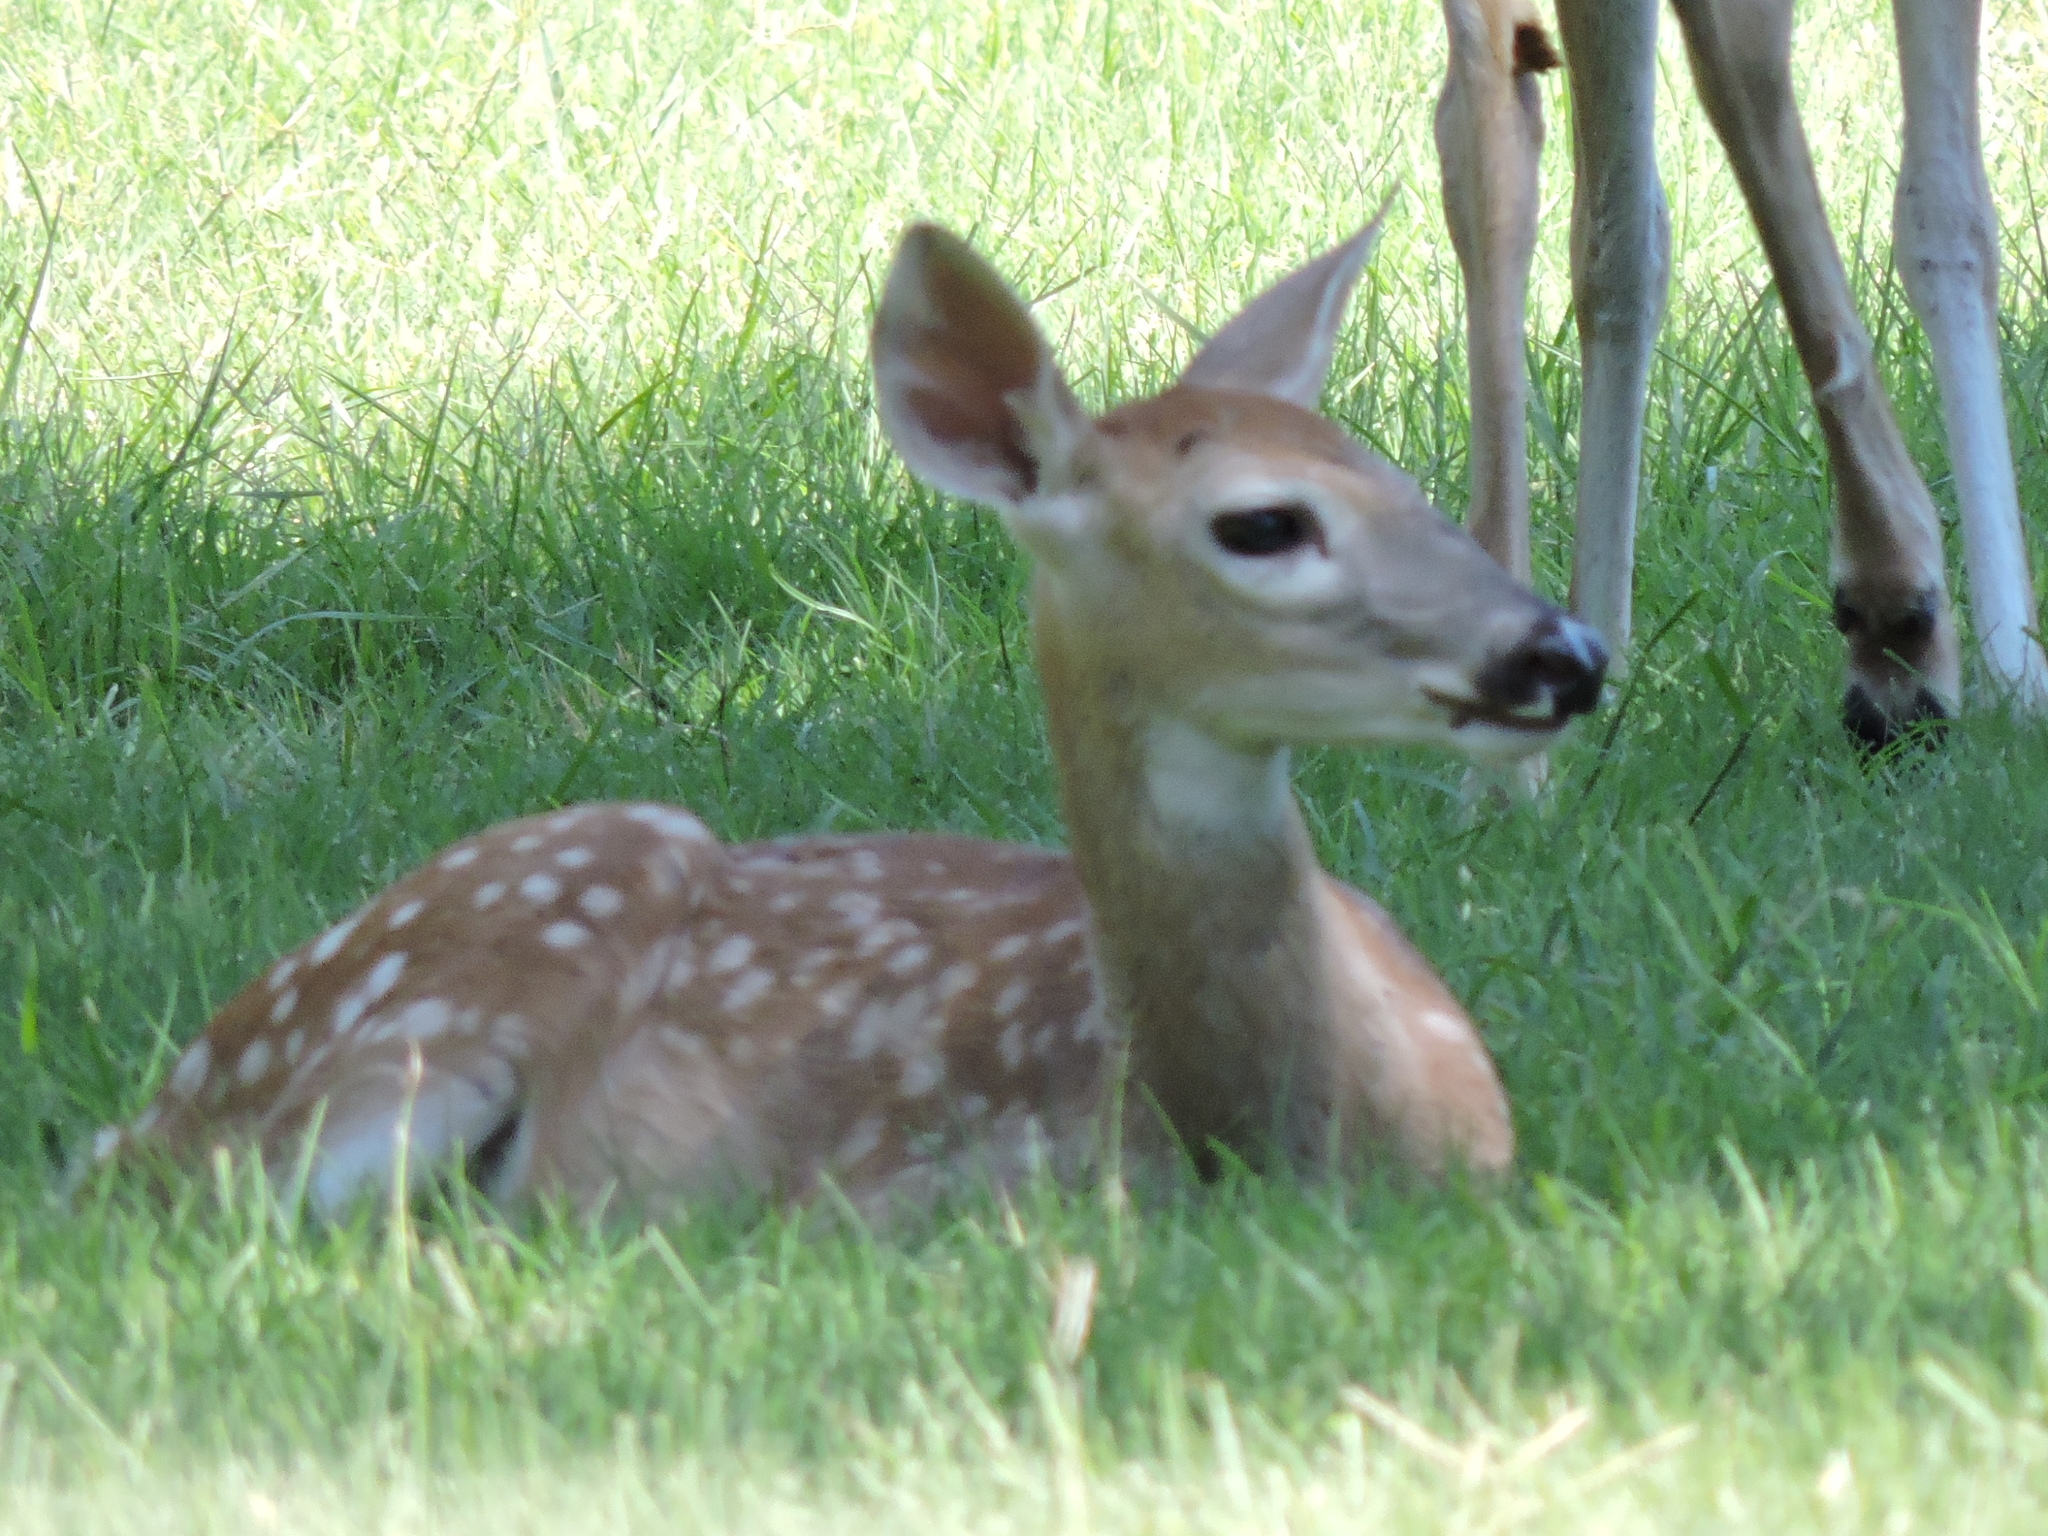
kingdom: Animalia
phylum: Chordata
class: Mammalia
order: Artiodactyla
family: Cervidae
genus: Odocoileus
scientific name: Odocoileus virginianus
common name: White-tailed deer
